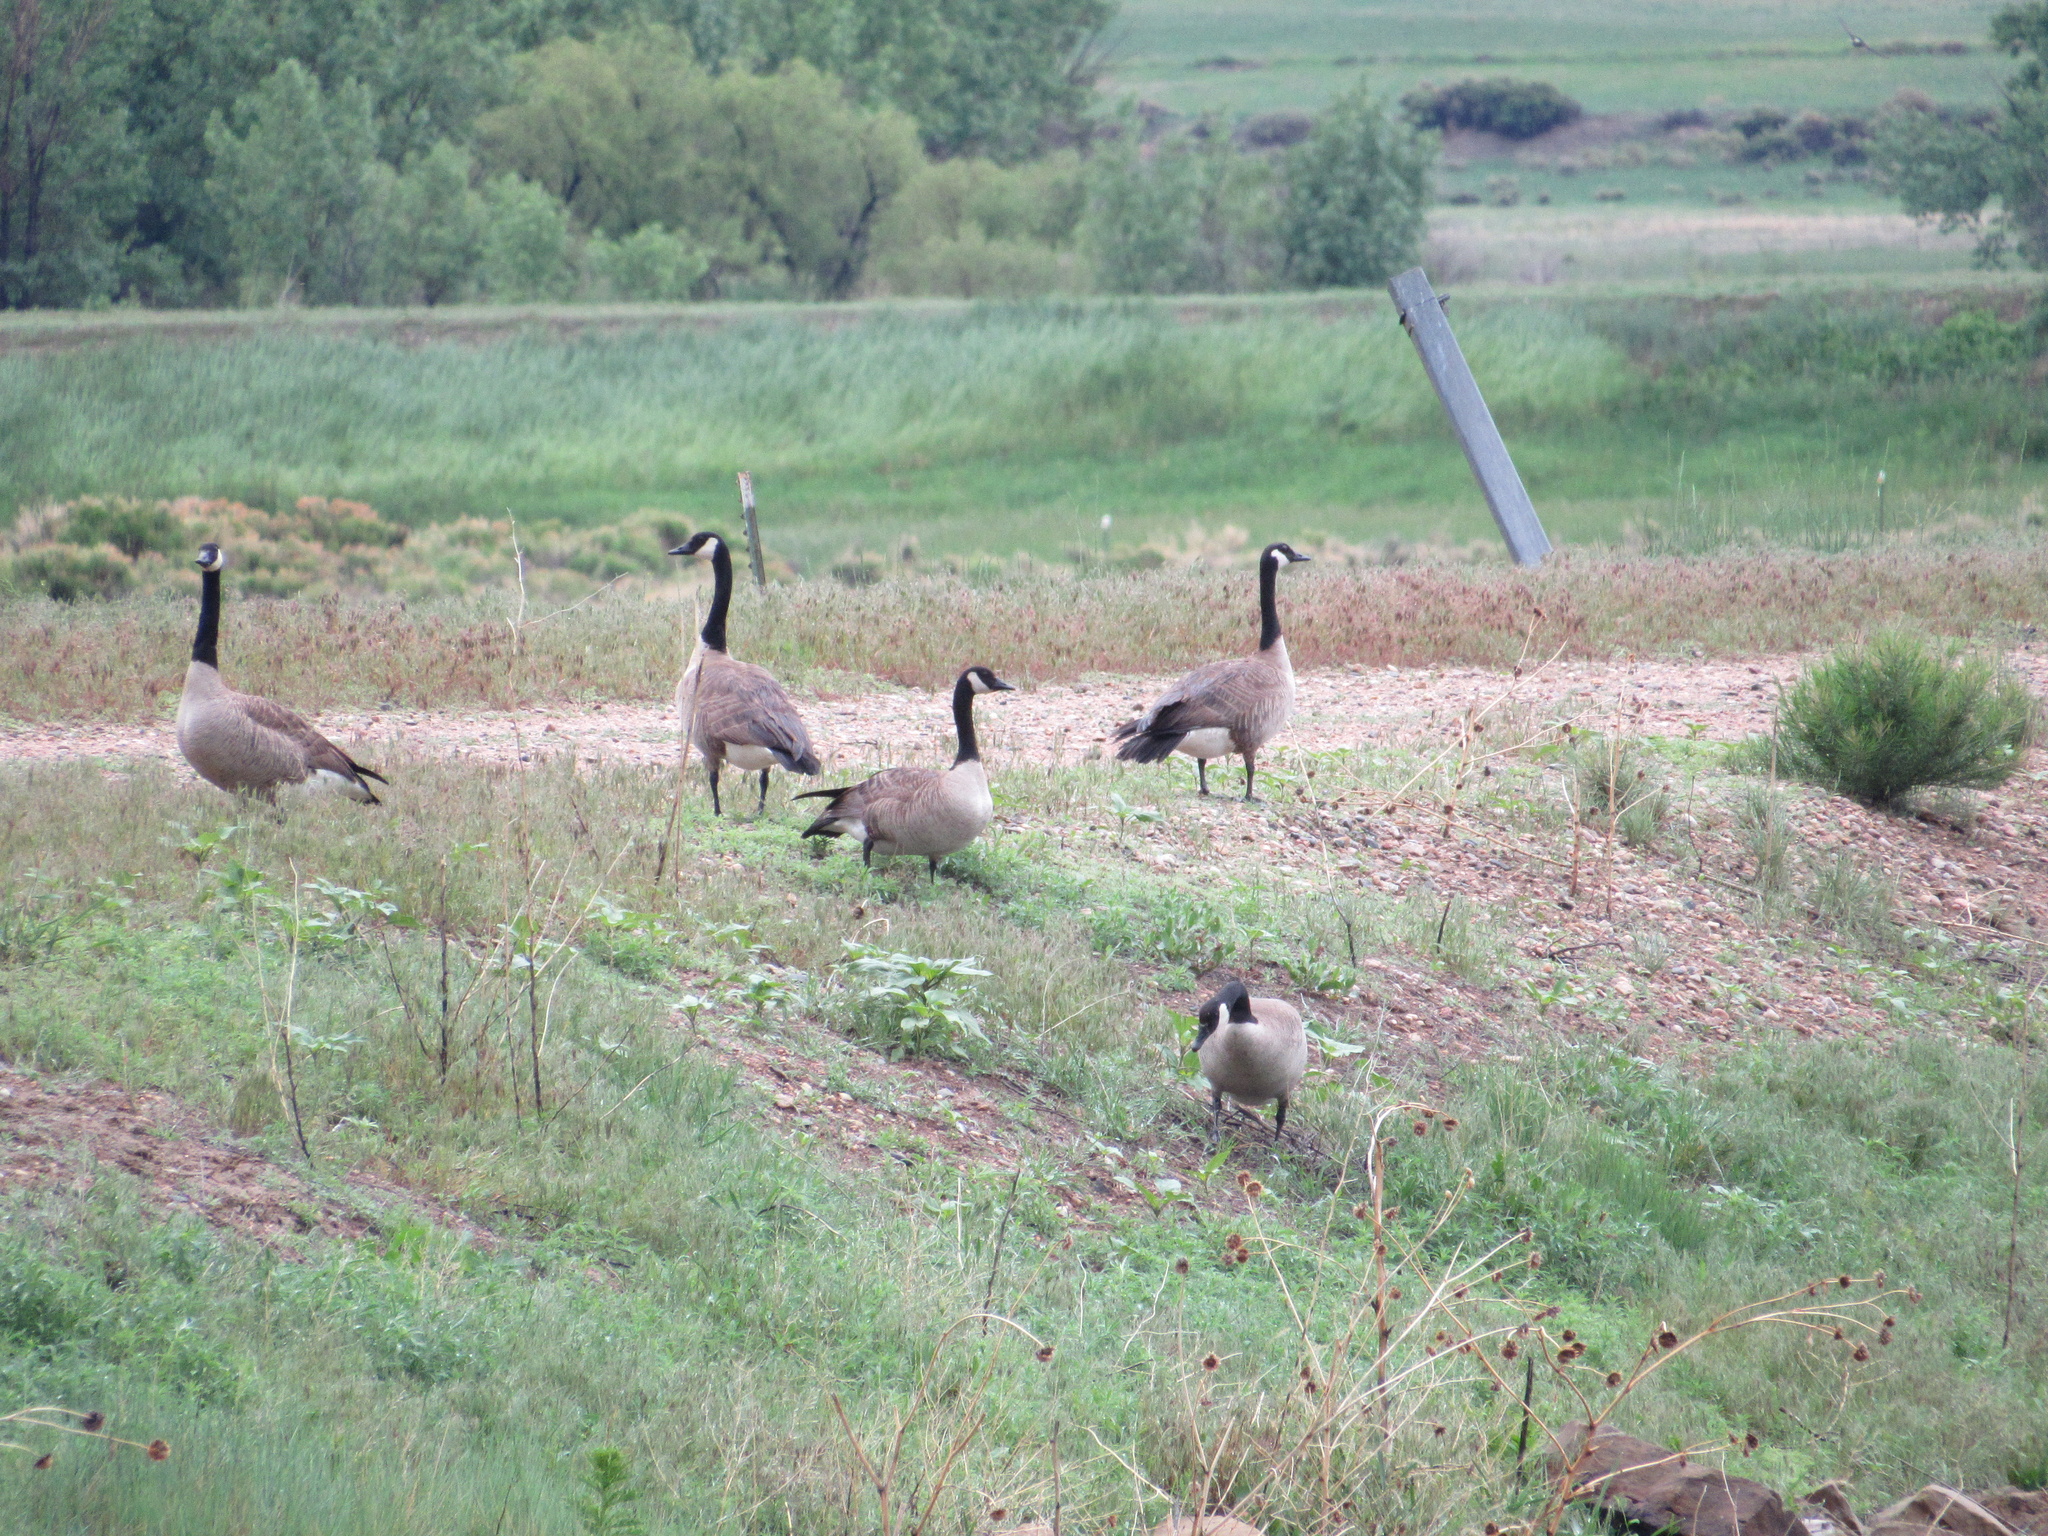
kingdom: Animalia
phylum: Chordata
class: Aves
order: Anseriformes
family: Anatidae
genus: Branta
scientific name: Branta canadensis
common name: Canada goose
